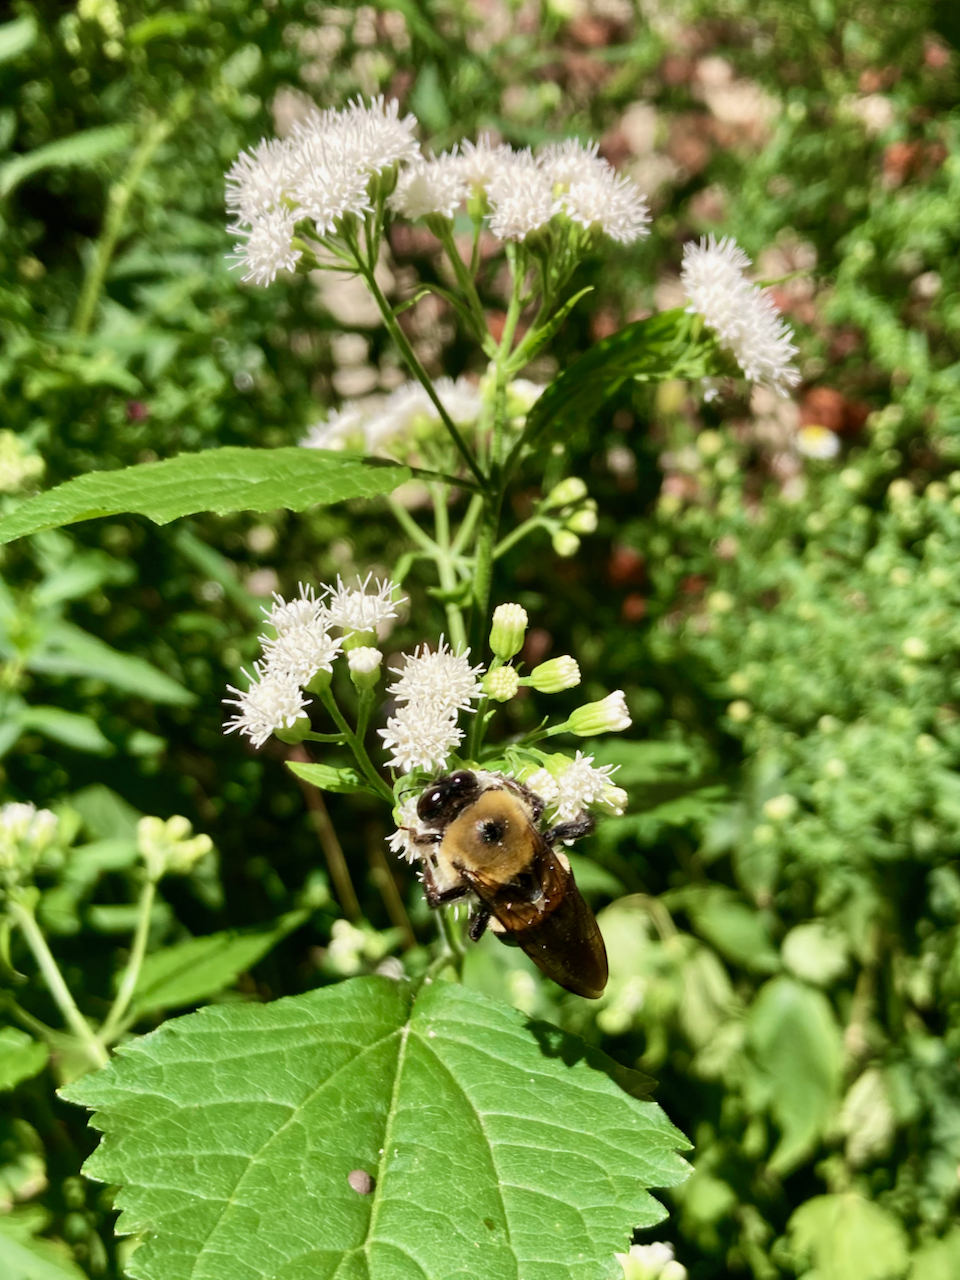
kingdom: Animalia
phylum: Arthropoda
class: Insecta
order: Hymenoptera
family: Apidae
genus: Xylocopa
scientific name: Xylocopa virginica
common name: Carpenter bee
